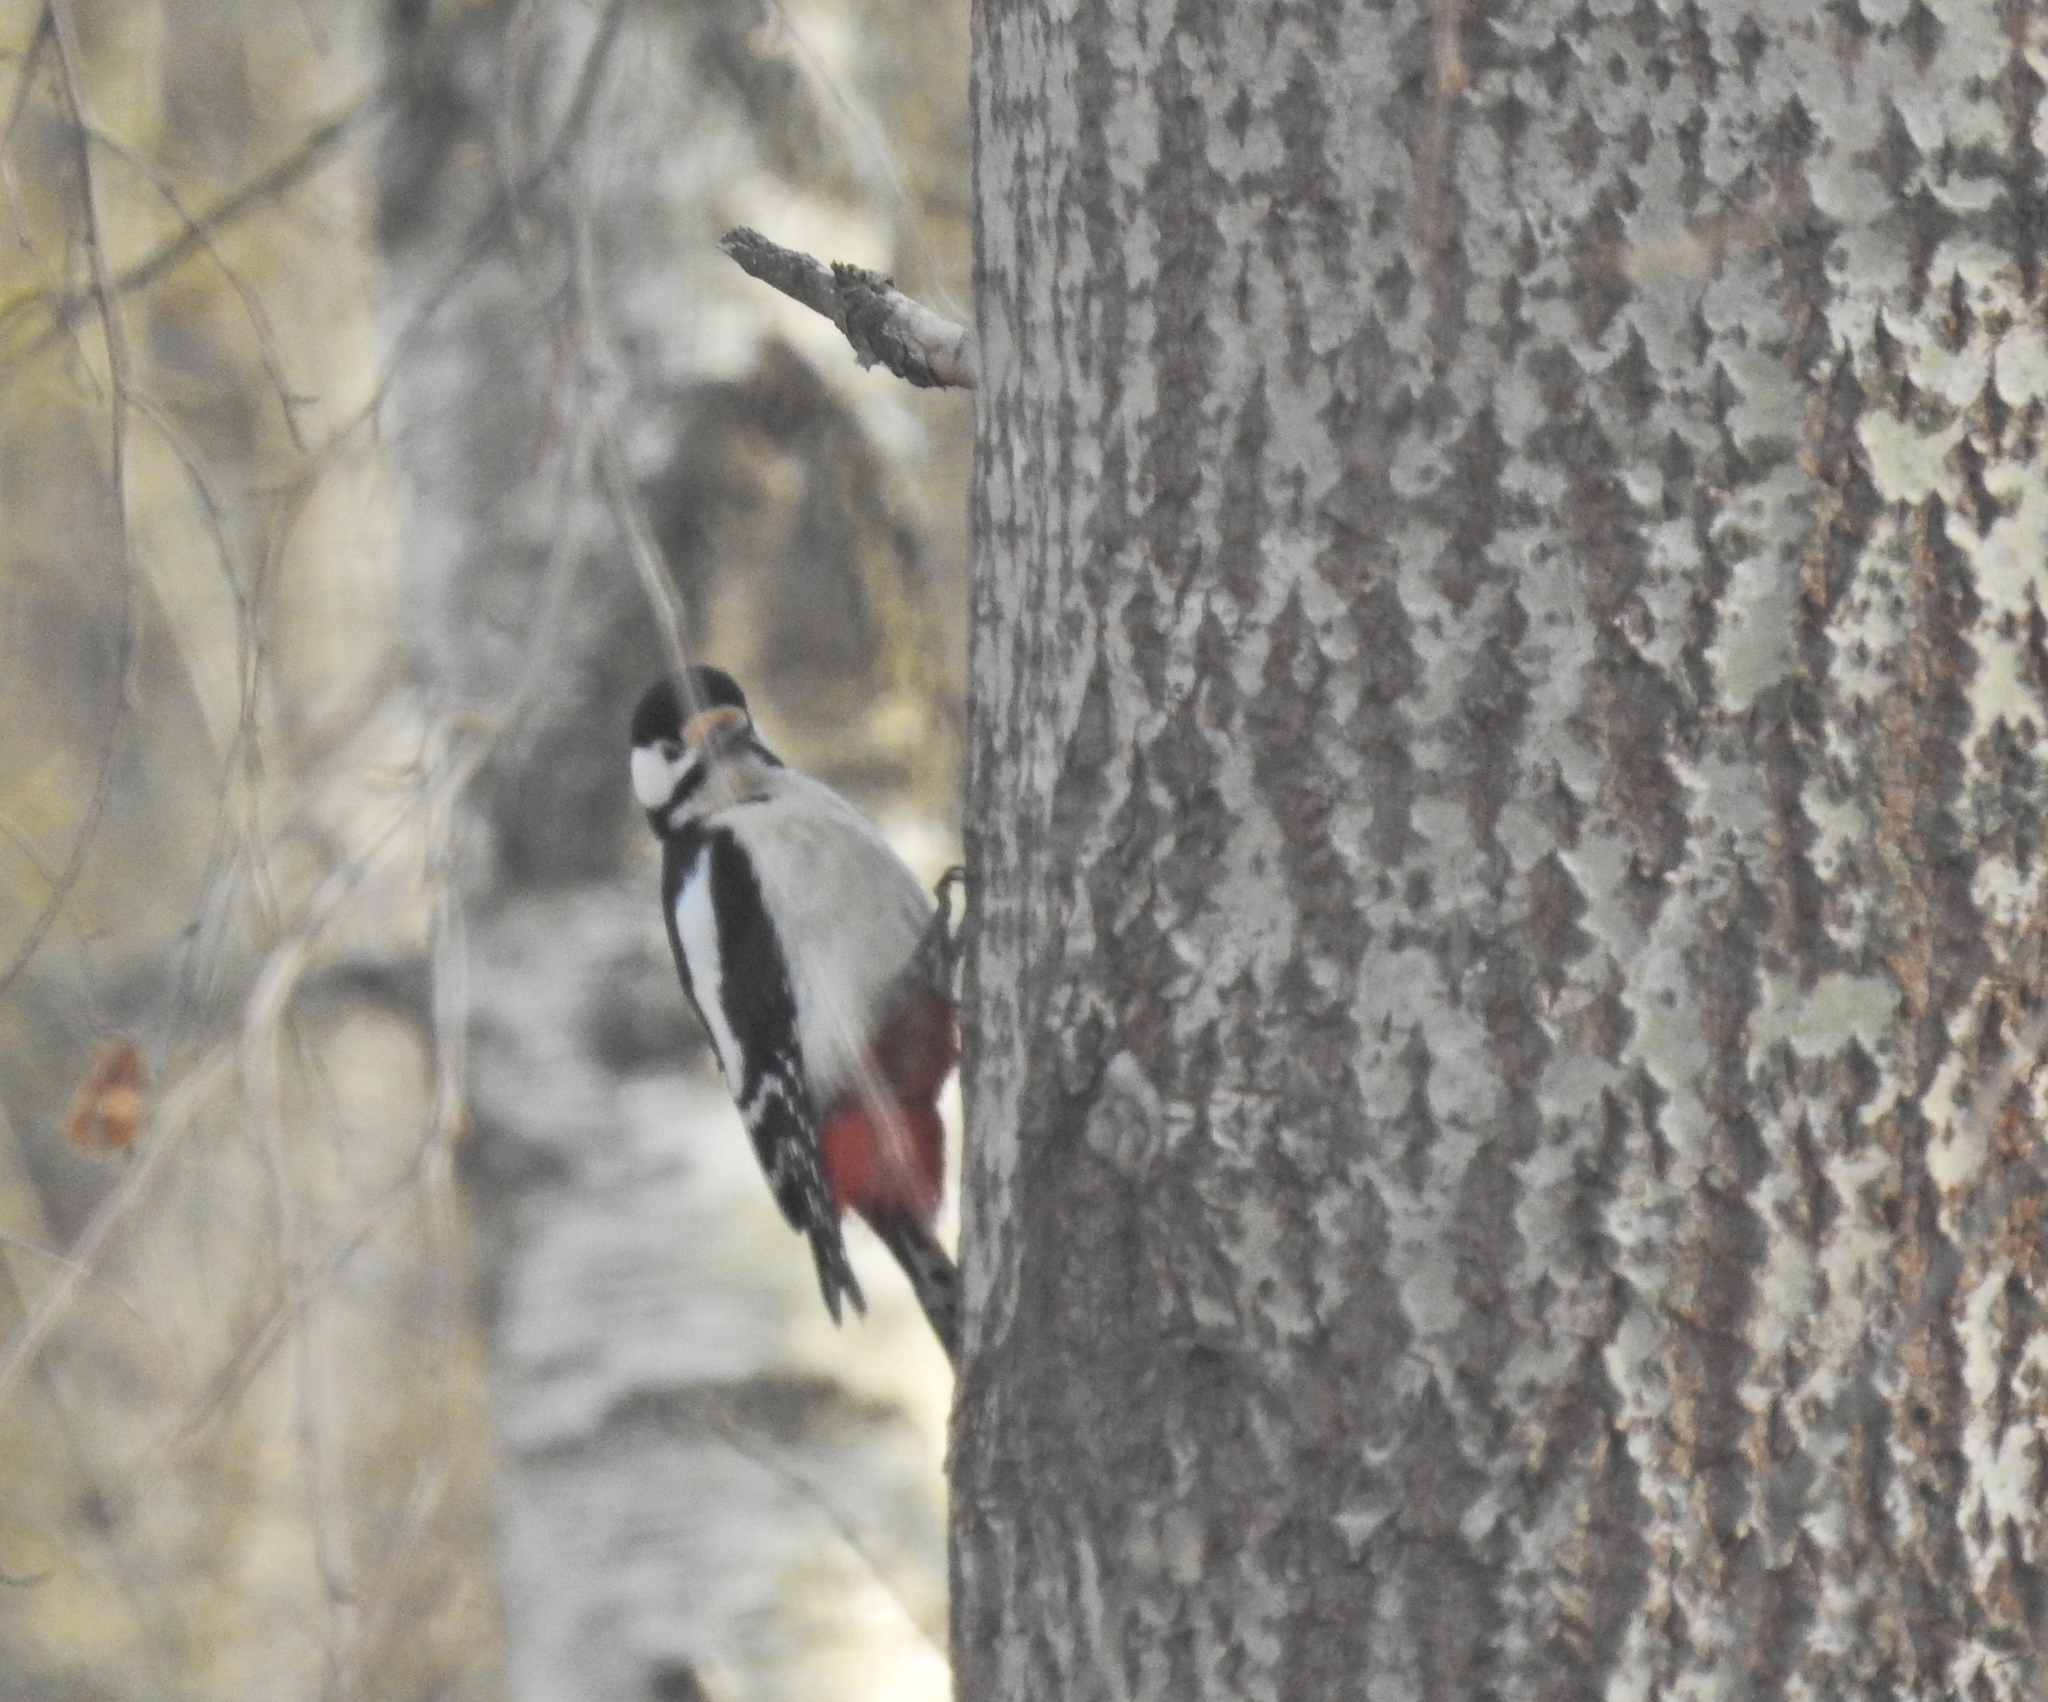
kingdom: Animalia
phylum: Chordata
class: Aves
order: Piciformes
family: Picidae
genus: Dendrocopos
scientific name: Dendrocopos major
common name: Great spotted woodpecker
